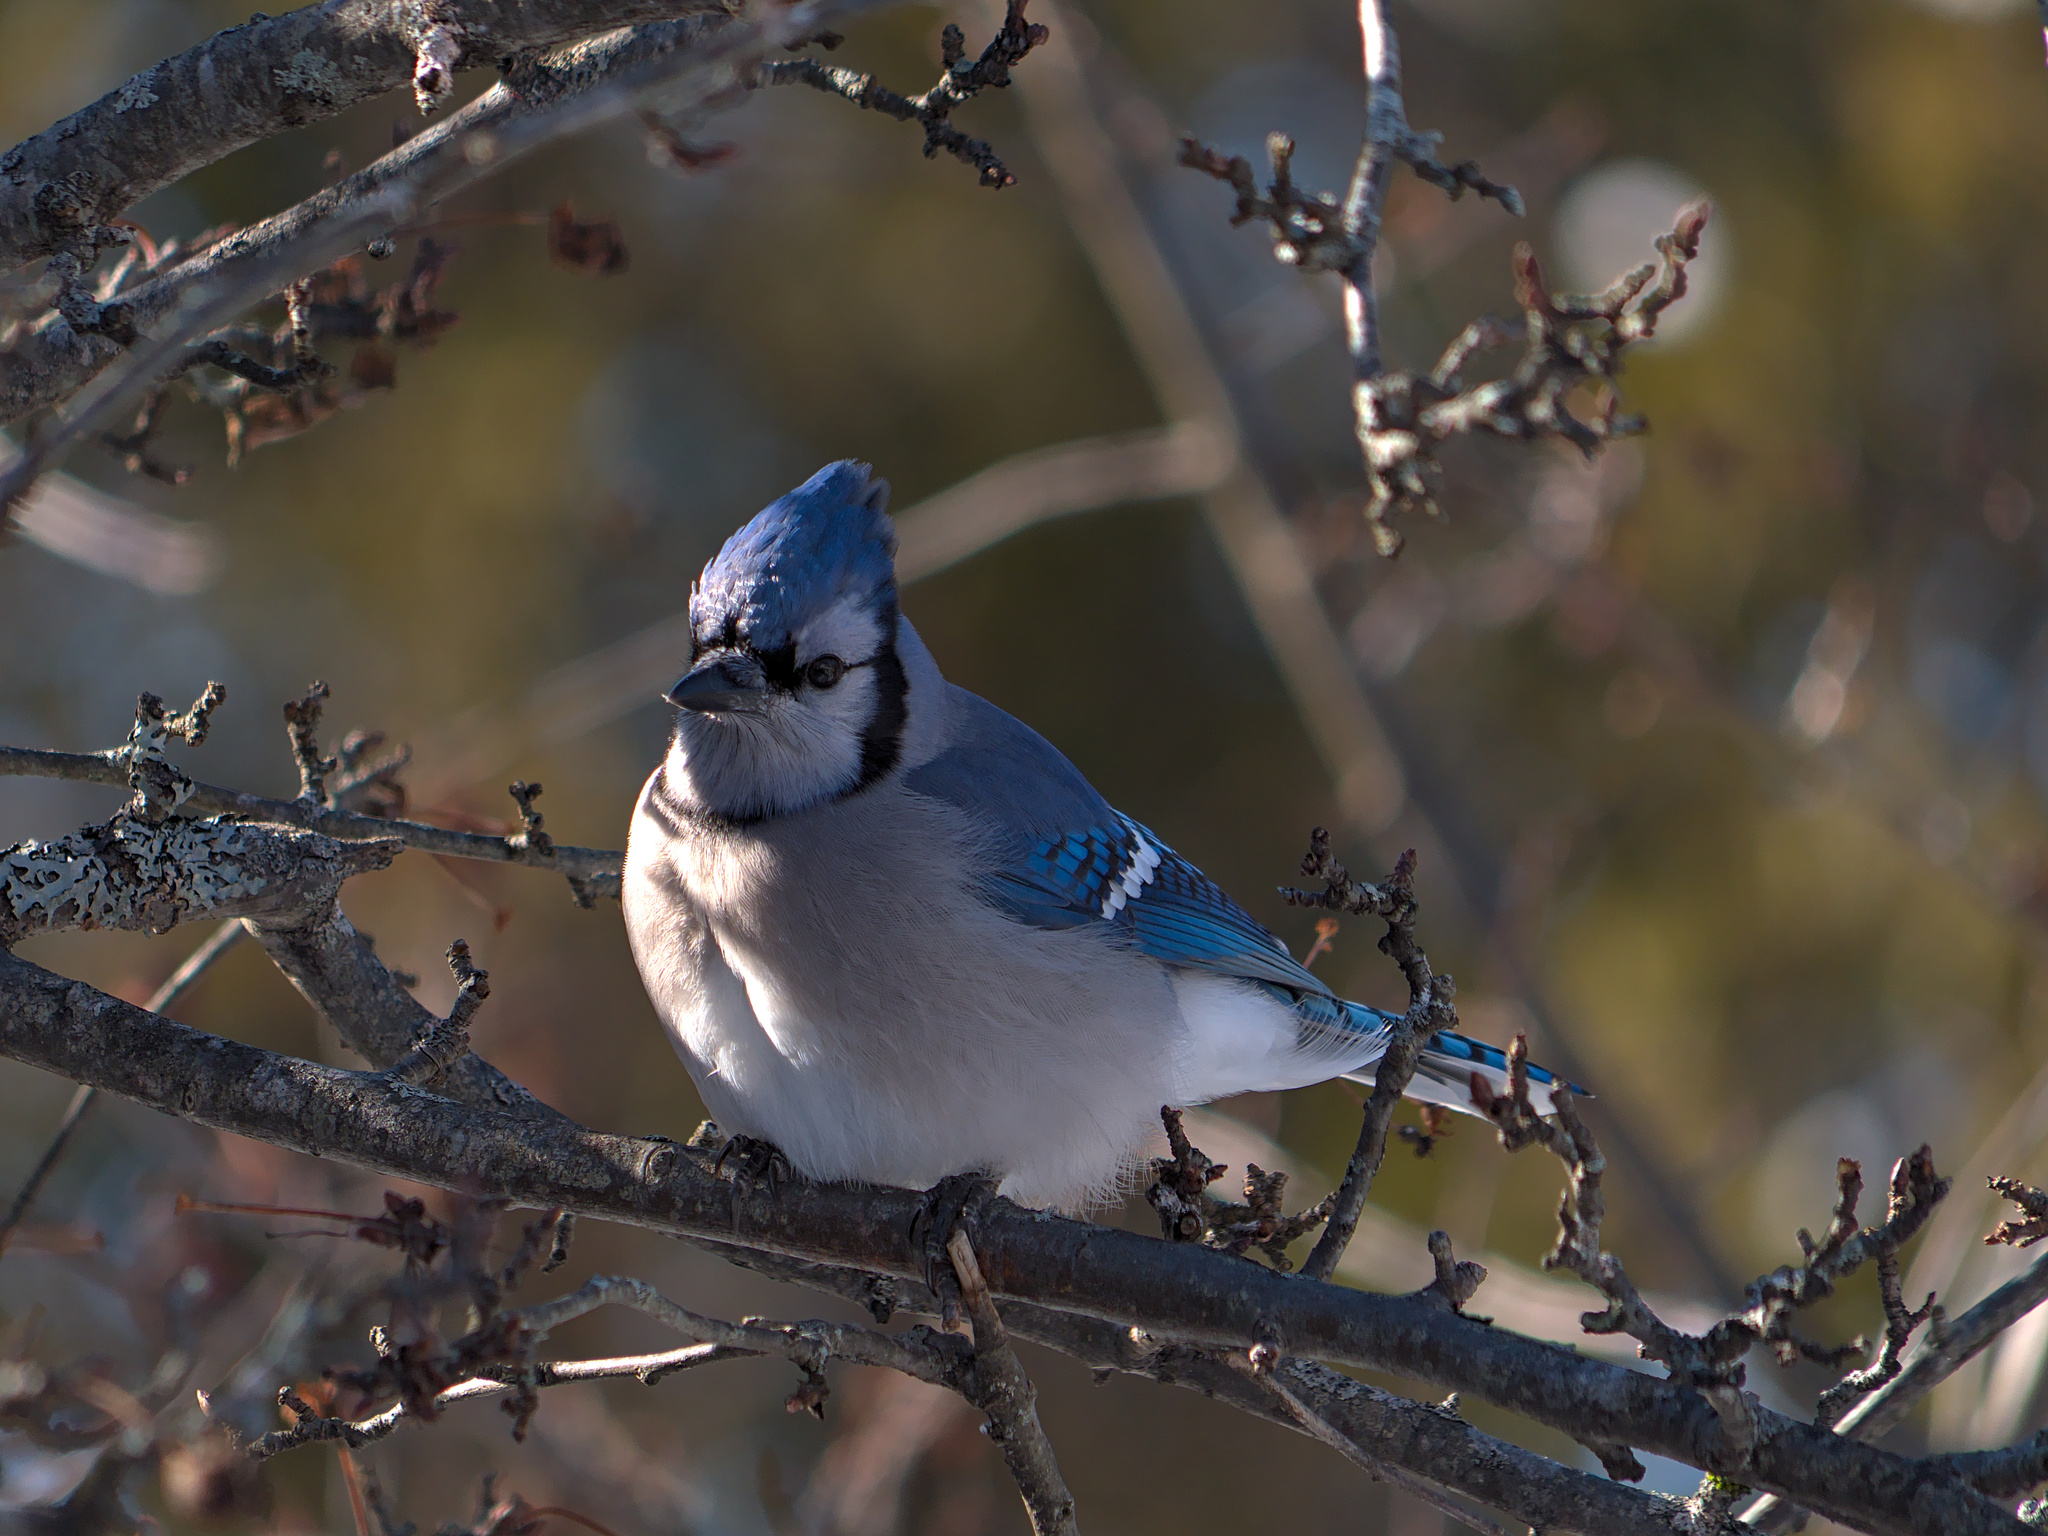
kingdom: Animalia
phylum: Chordata
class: Aves
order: Passeriformes
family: Corvidae
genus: Cyanocitta
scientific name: Cyanocitta cristata
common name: Blue jay
